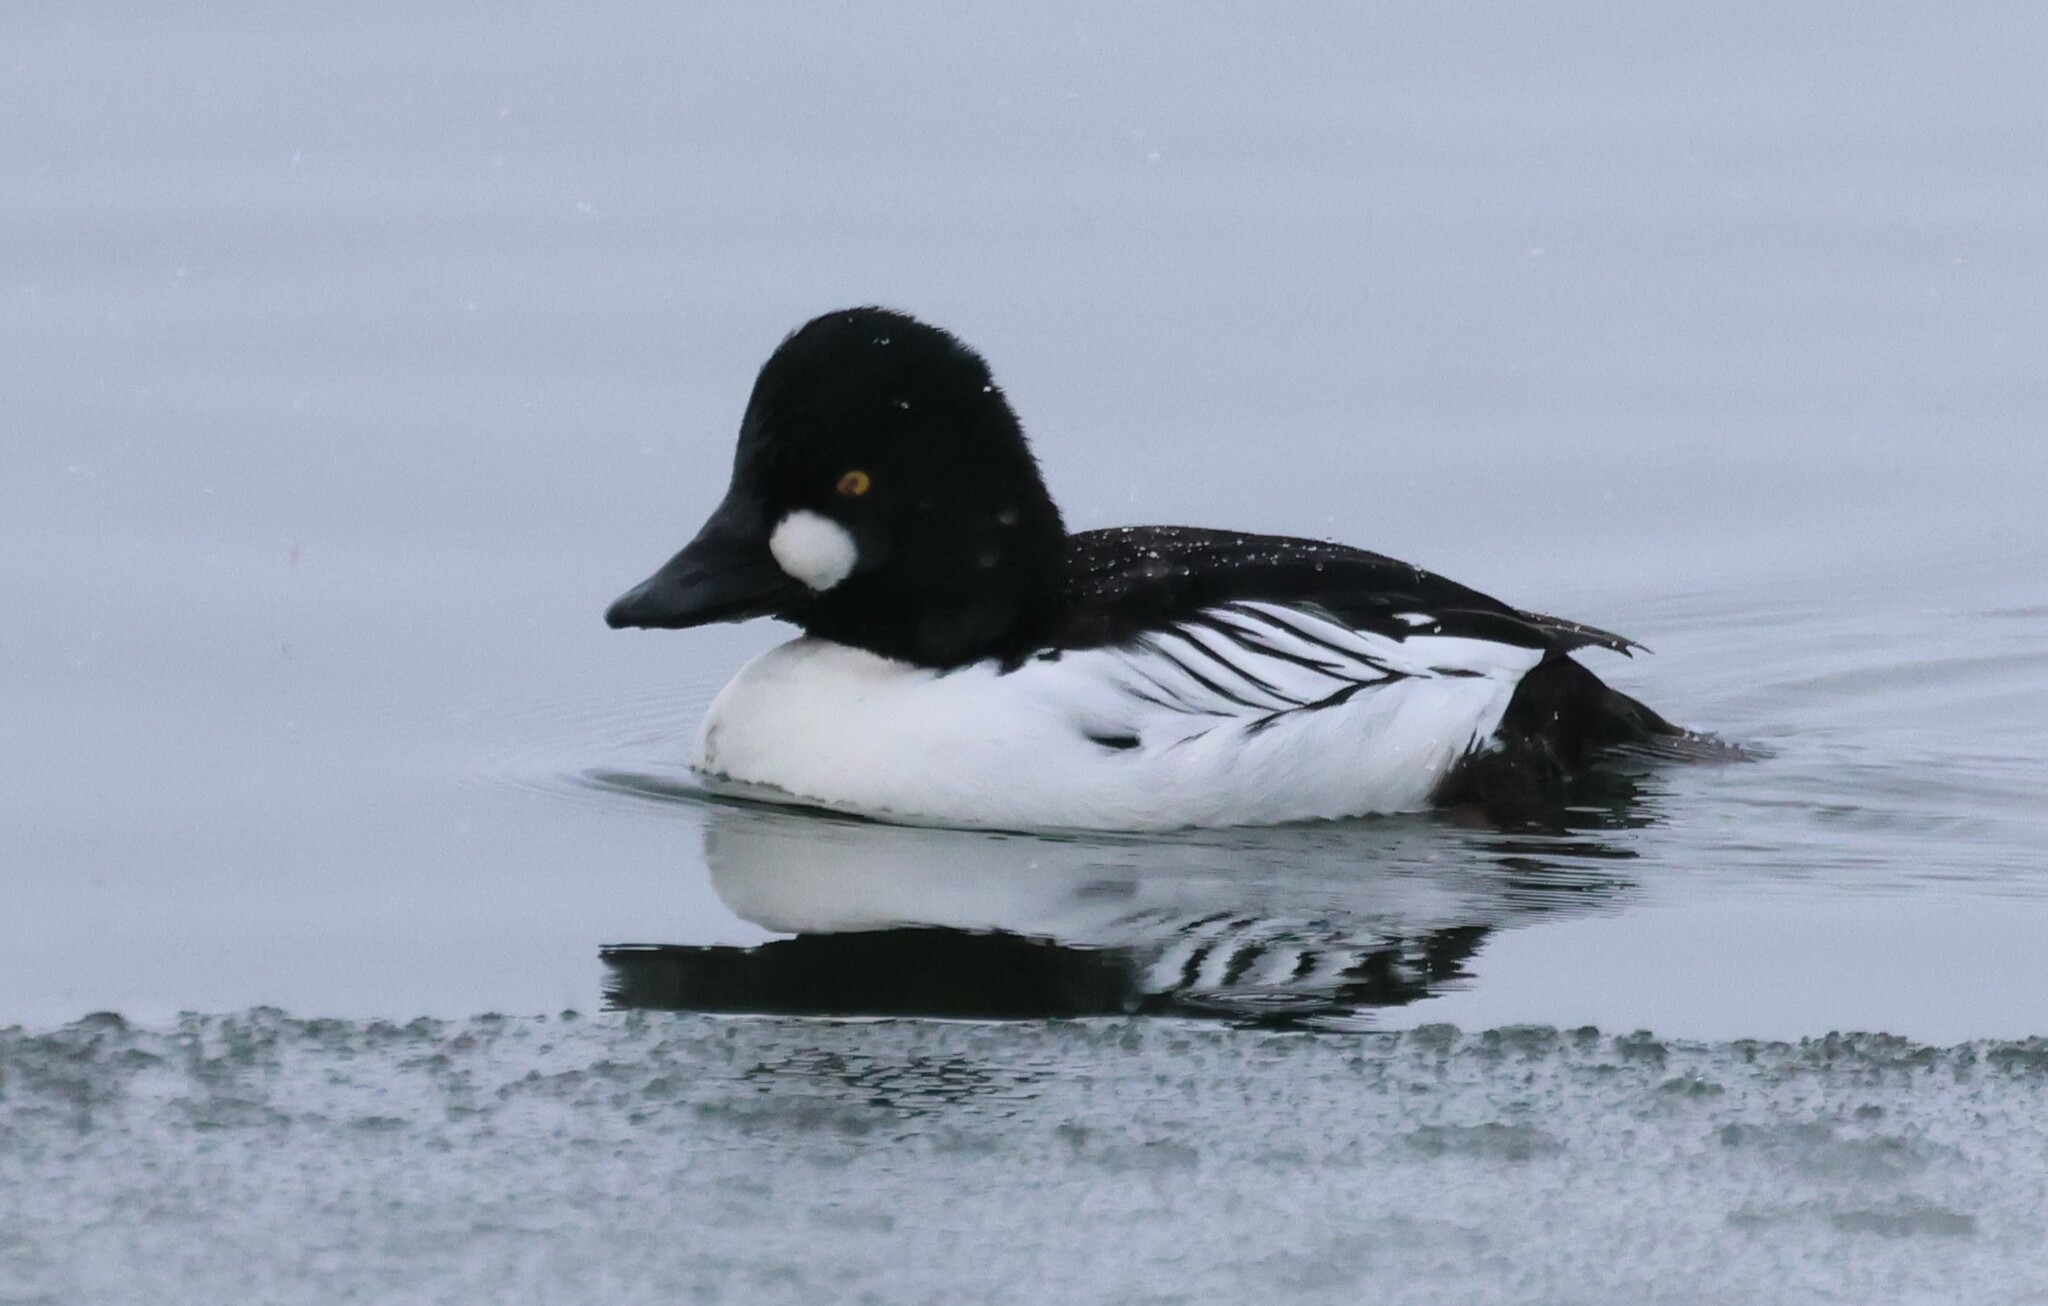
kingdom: Animalia
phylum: Chordata
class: Aves
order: Anseriformes
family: Anatidae
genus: Bucephala
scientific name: Bucephala clangula
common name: Common goldeneye
